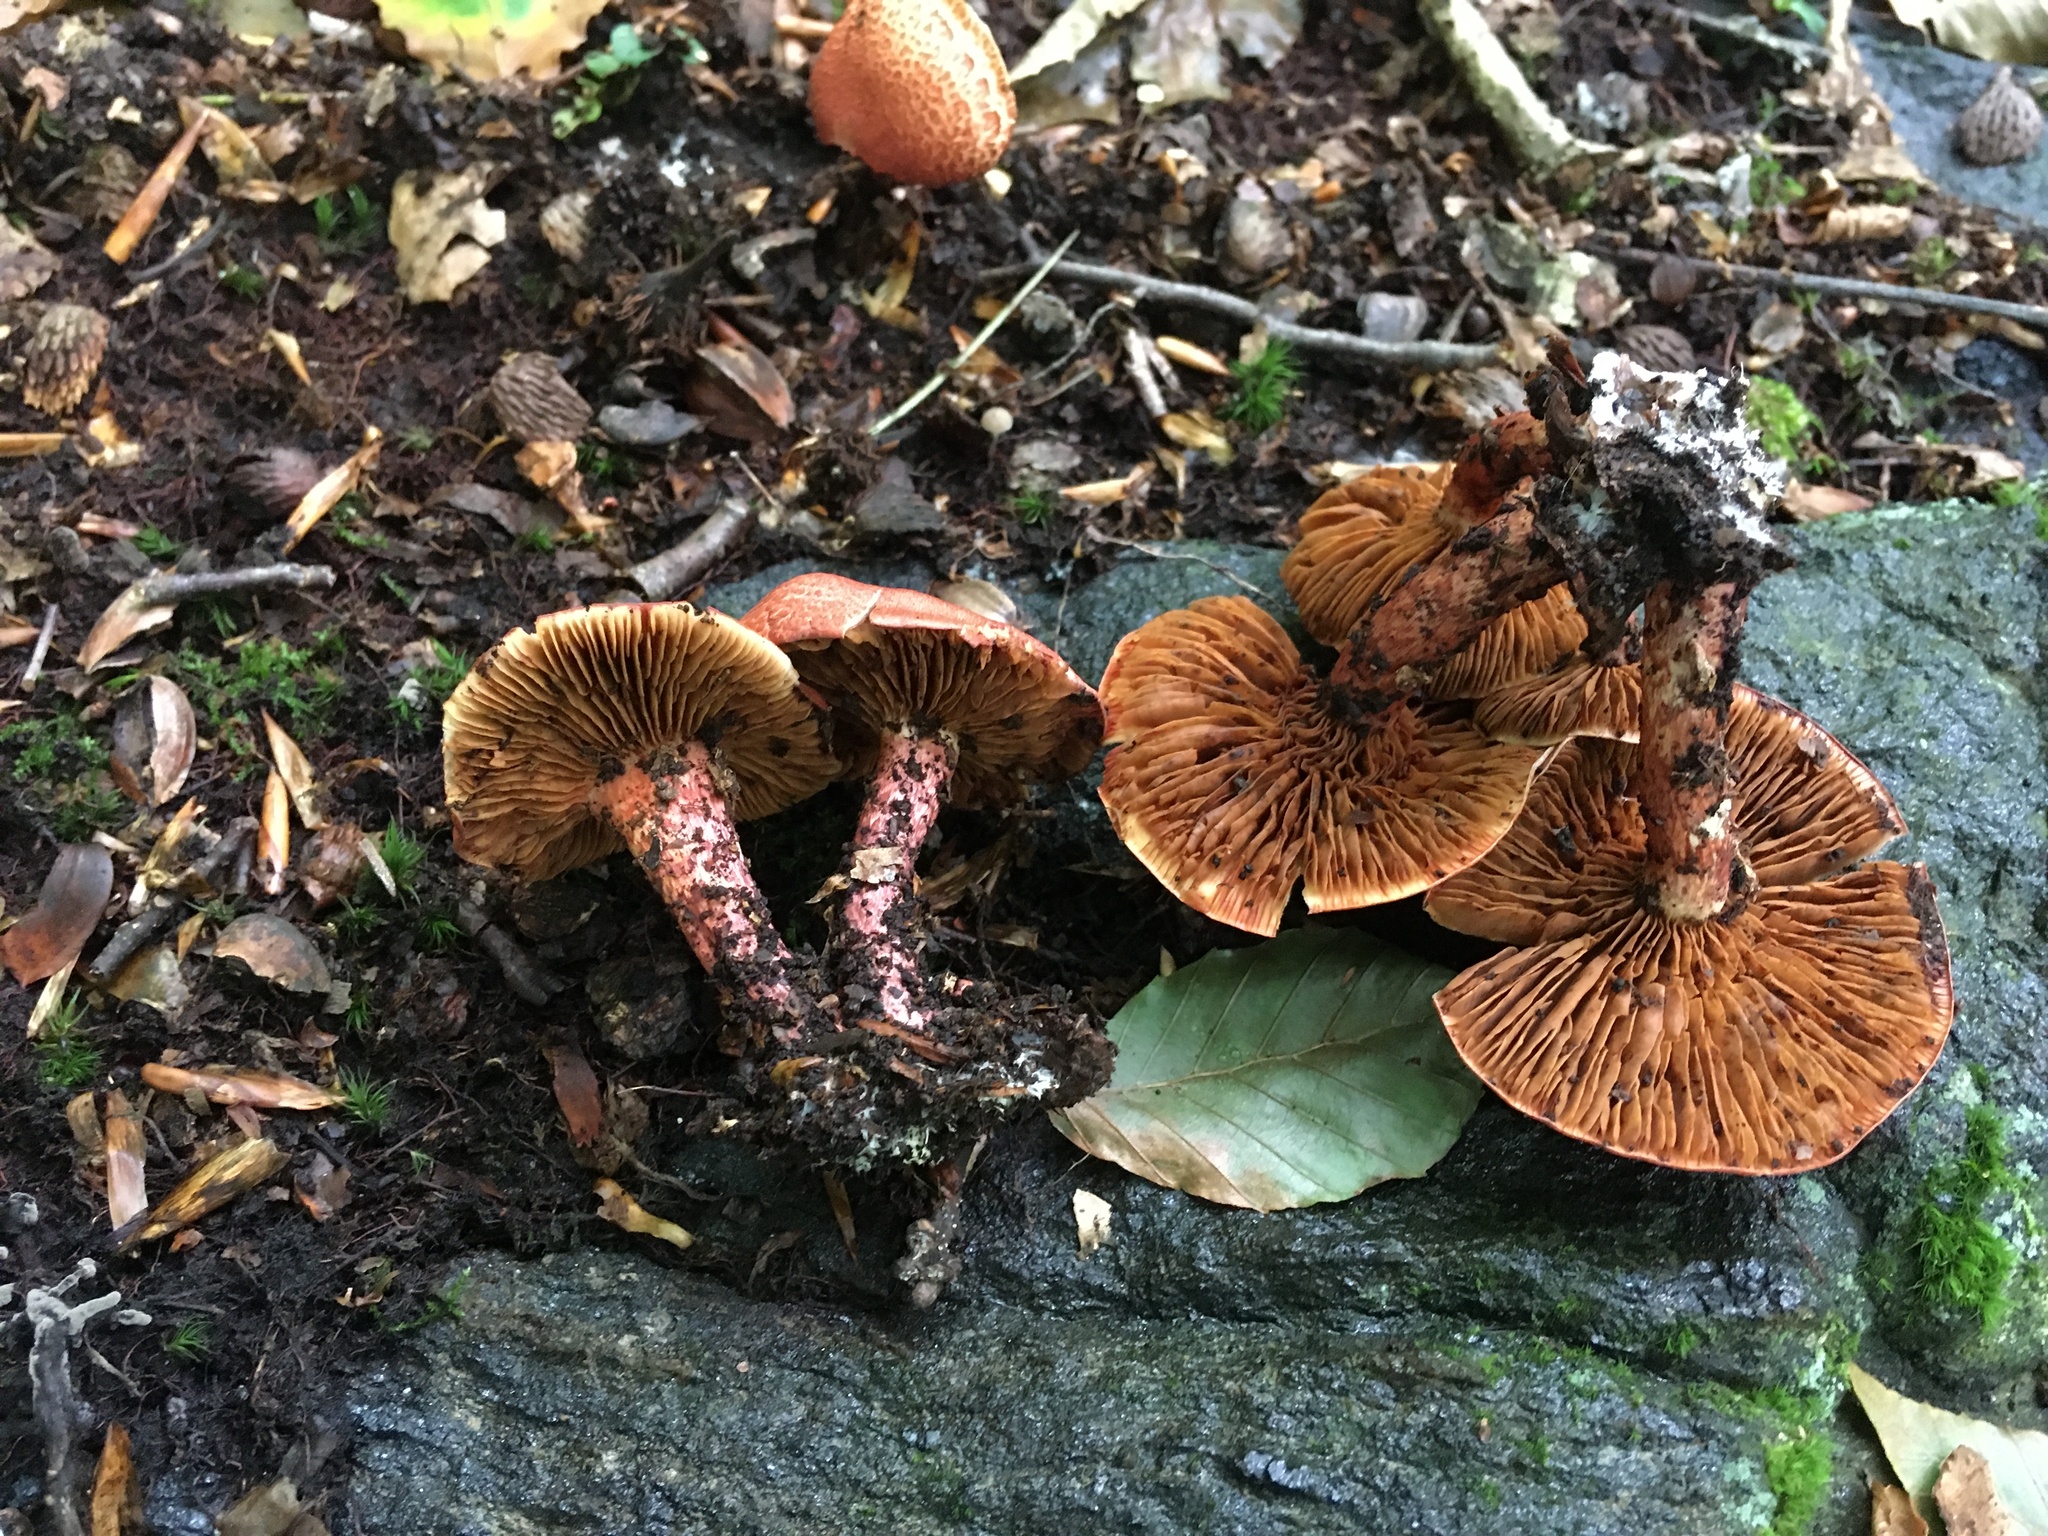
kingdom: Fungi
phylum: Basidiomycota
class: Agaricomycetes
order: Agaricales
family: Cortinariaceae
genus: Cortinarius
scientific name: Cortinarius bolaris
